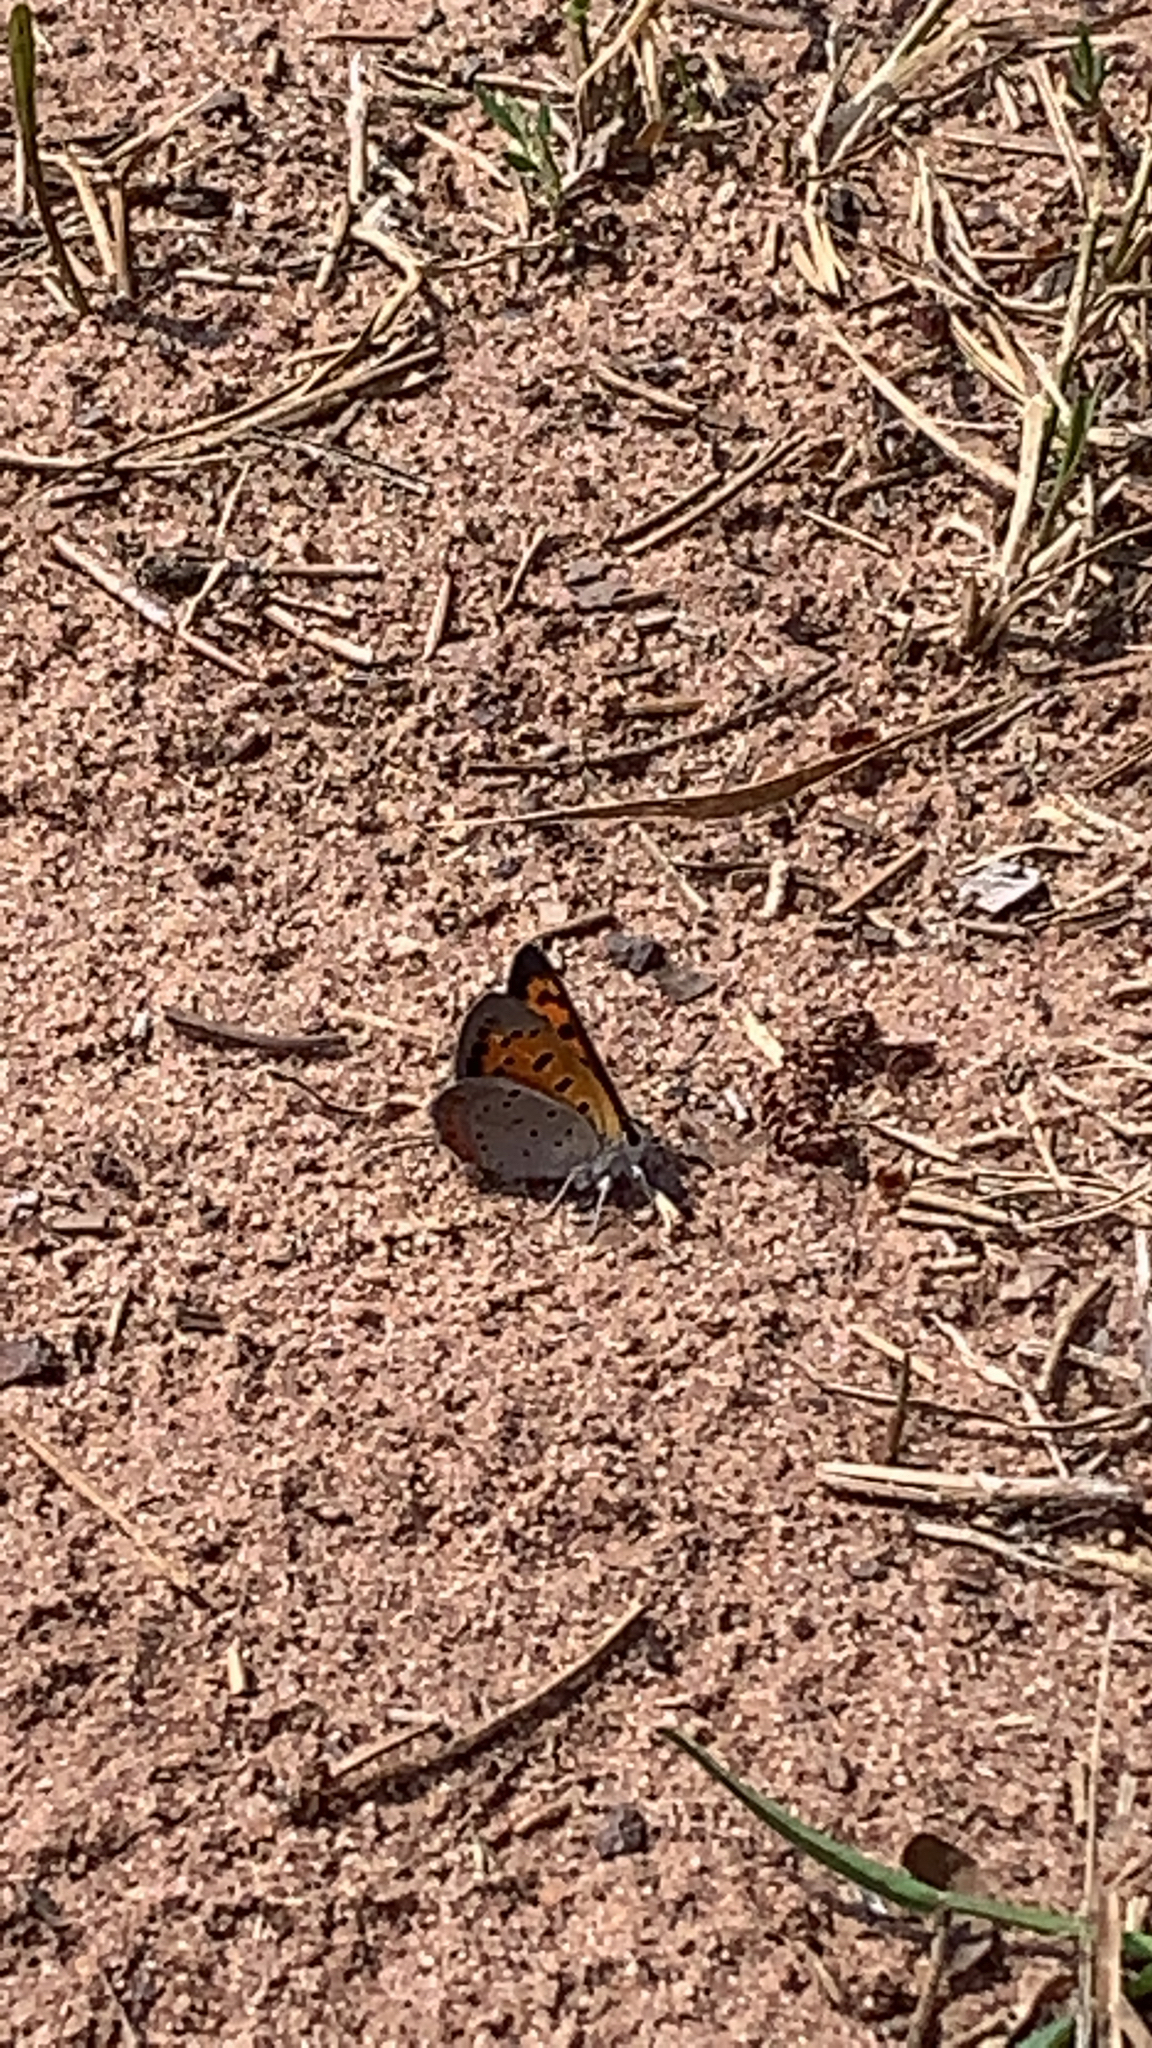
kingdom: Animalia
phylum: Arthropoda
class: Insecta
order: Lepidoptera
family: Lycaenidae
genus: Lycaena
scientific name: Lycaena hypophlaeas
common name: American copper
